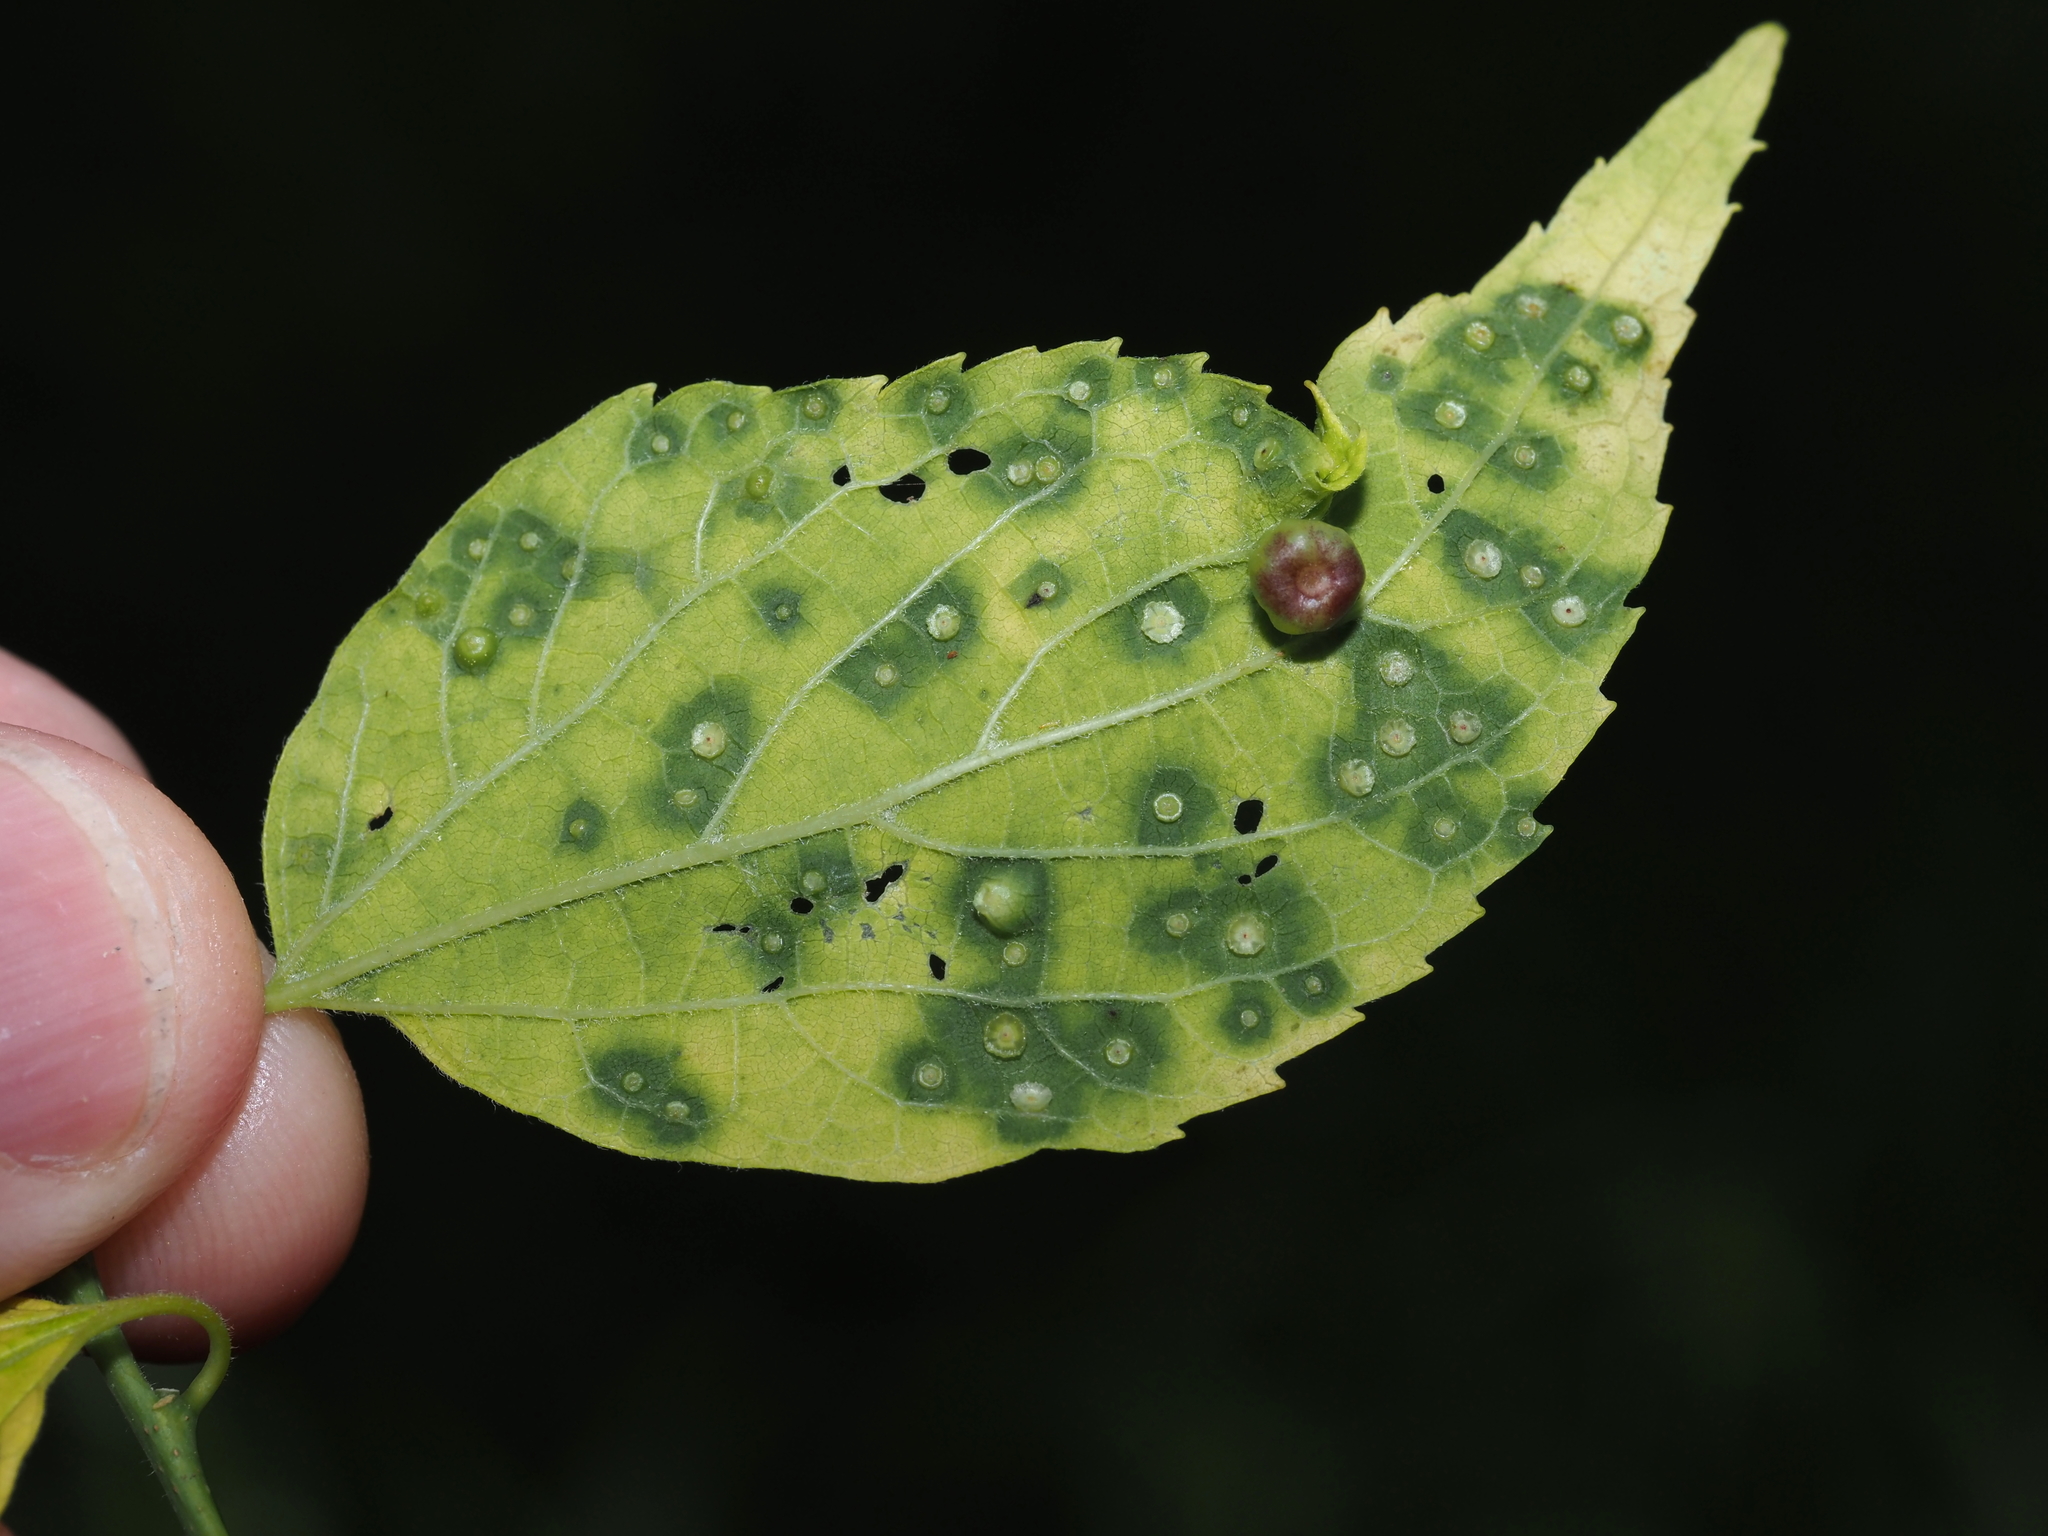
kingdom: Animalia
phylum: Arthropoda
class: Insecta
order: Hemiptera
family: Aphalaridae
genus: Pachypsylla
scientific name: Pachypsylla celtidisasterisca
